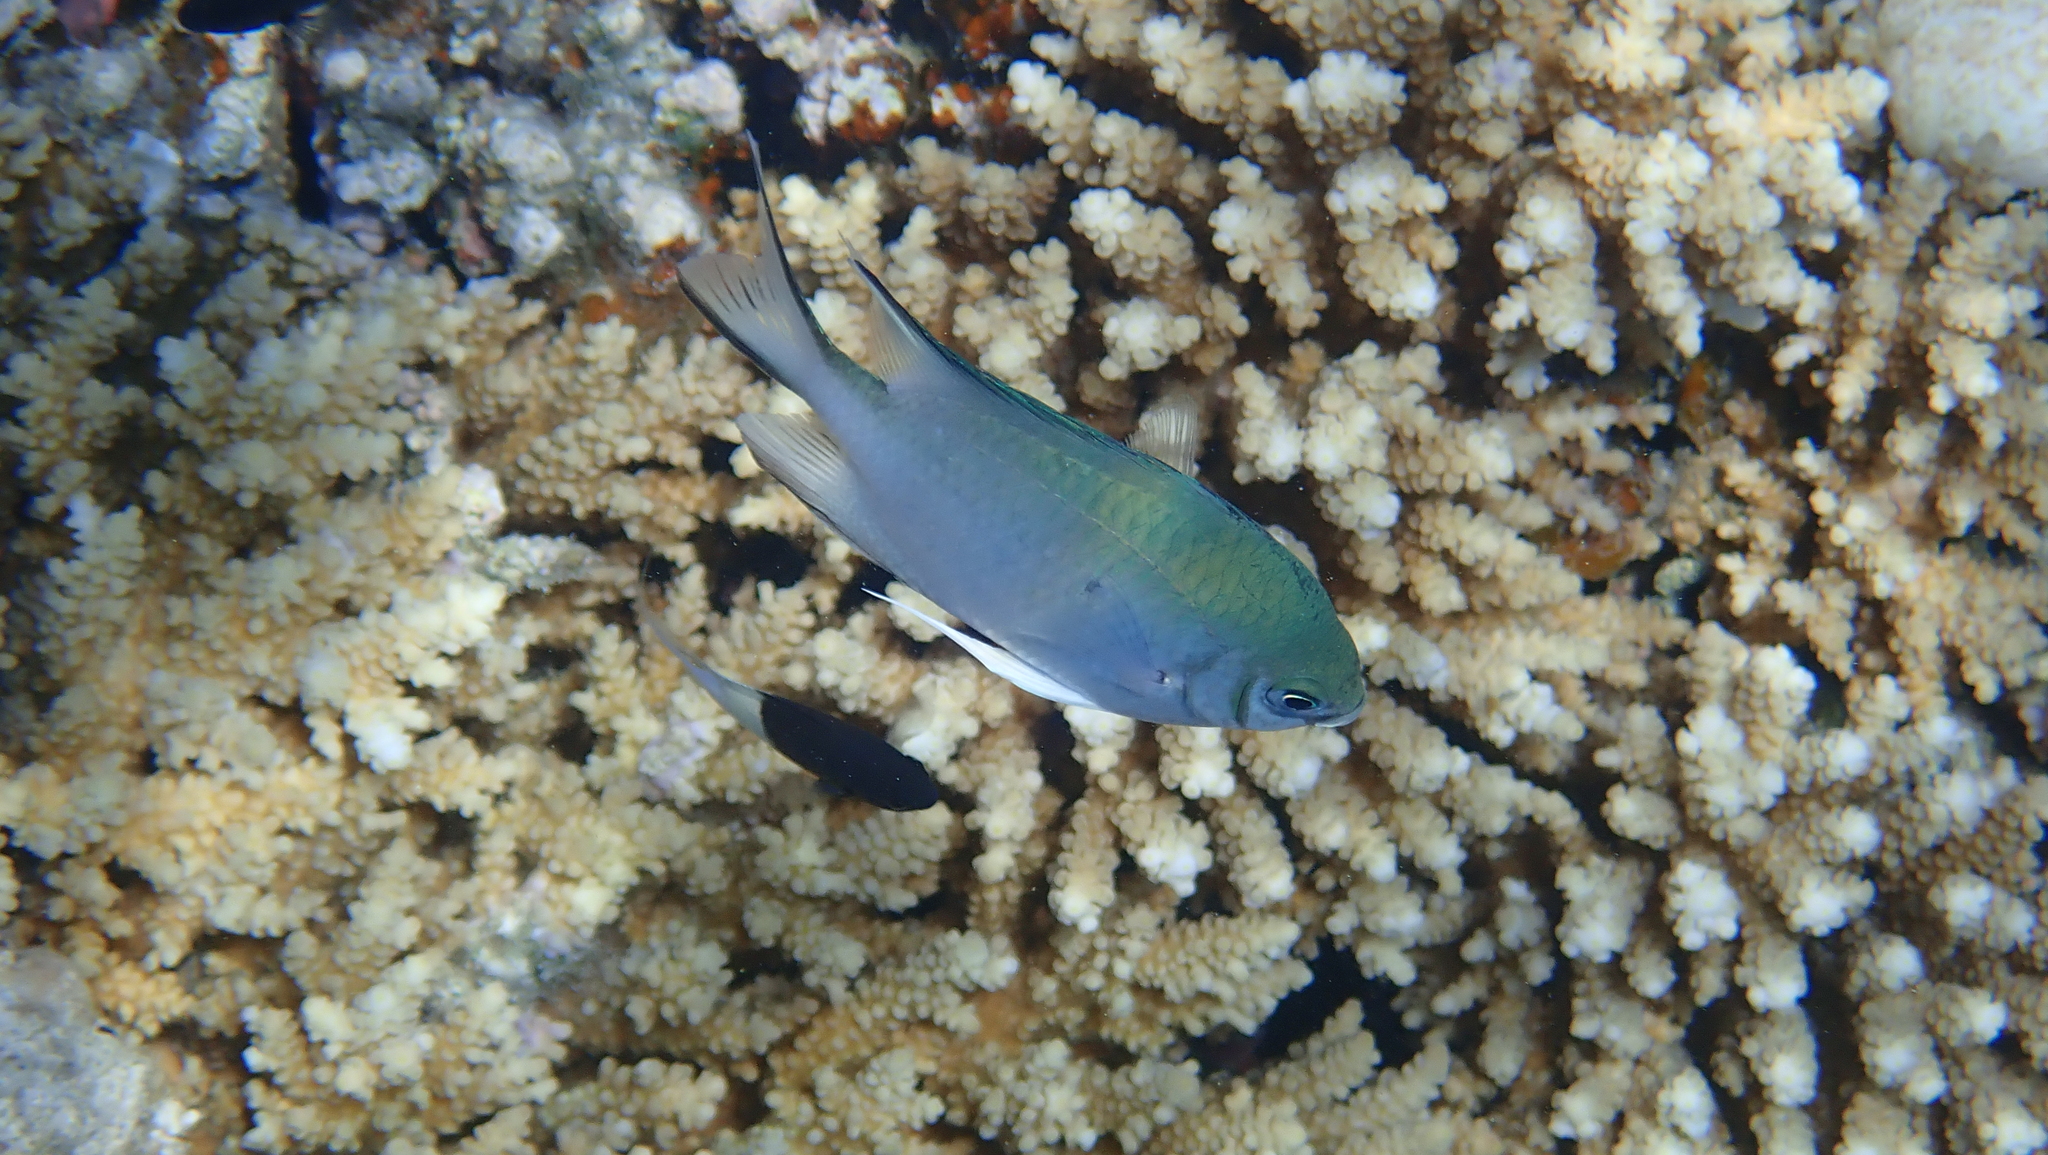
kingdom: Animalia
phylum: Chordata
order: Perciformes
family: Pomacentridae
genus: Amblyglyphidodon
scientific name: Amblyglyphidodon indicus
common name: Maldives damselfish
